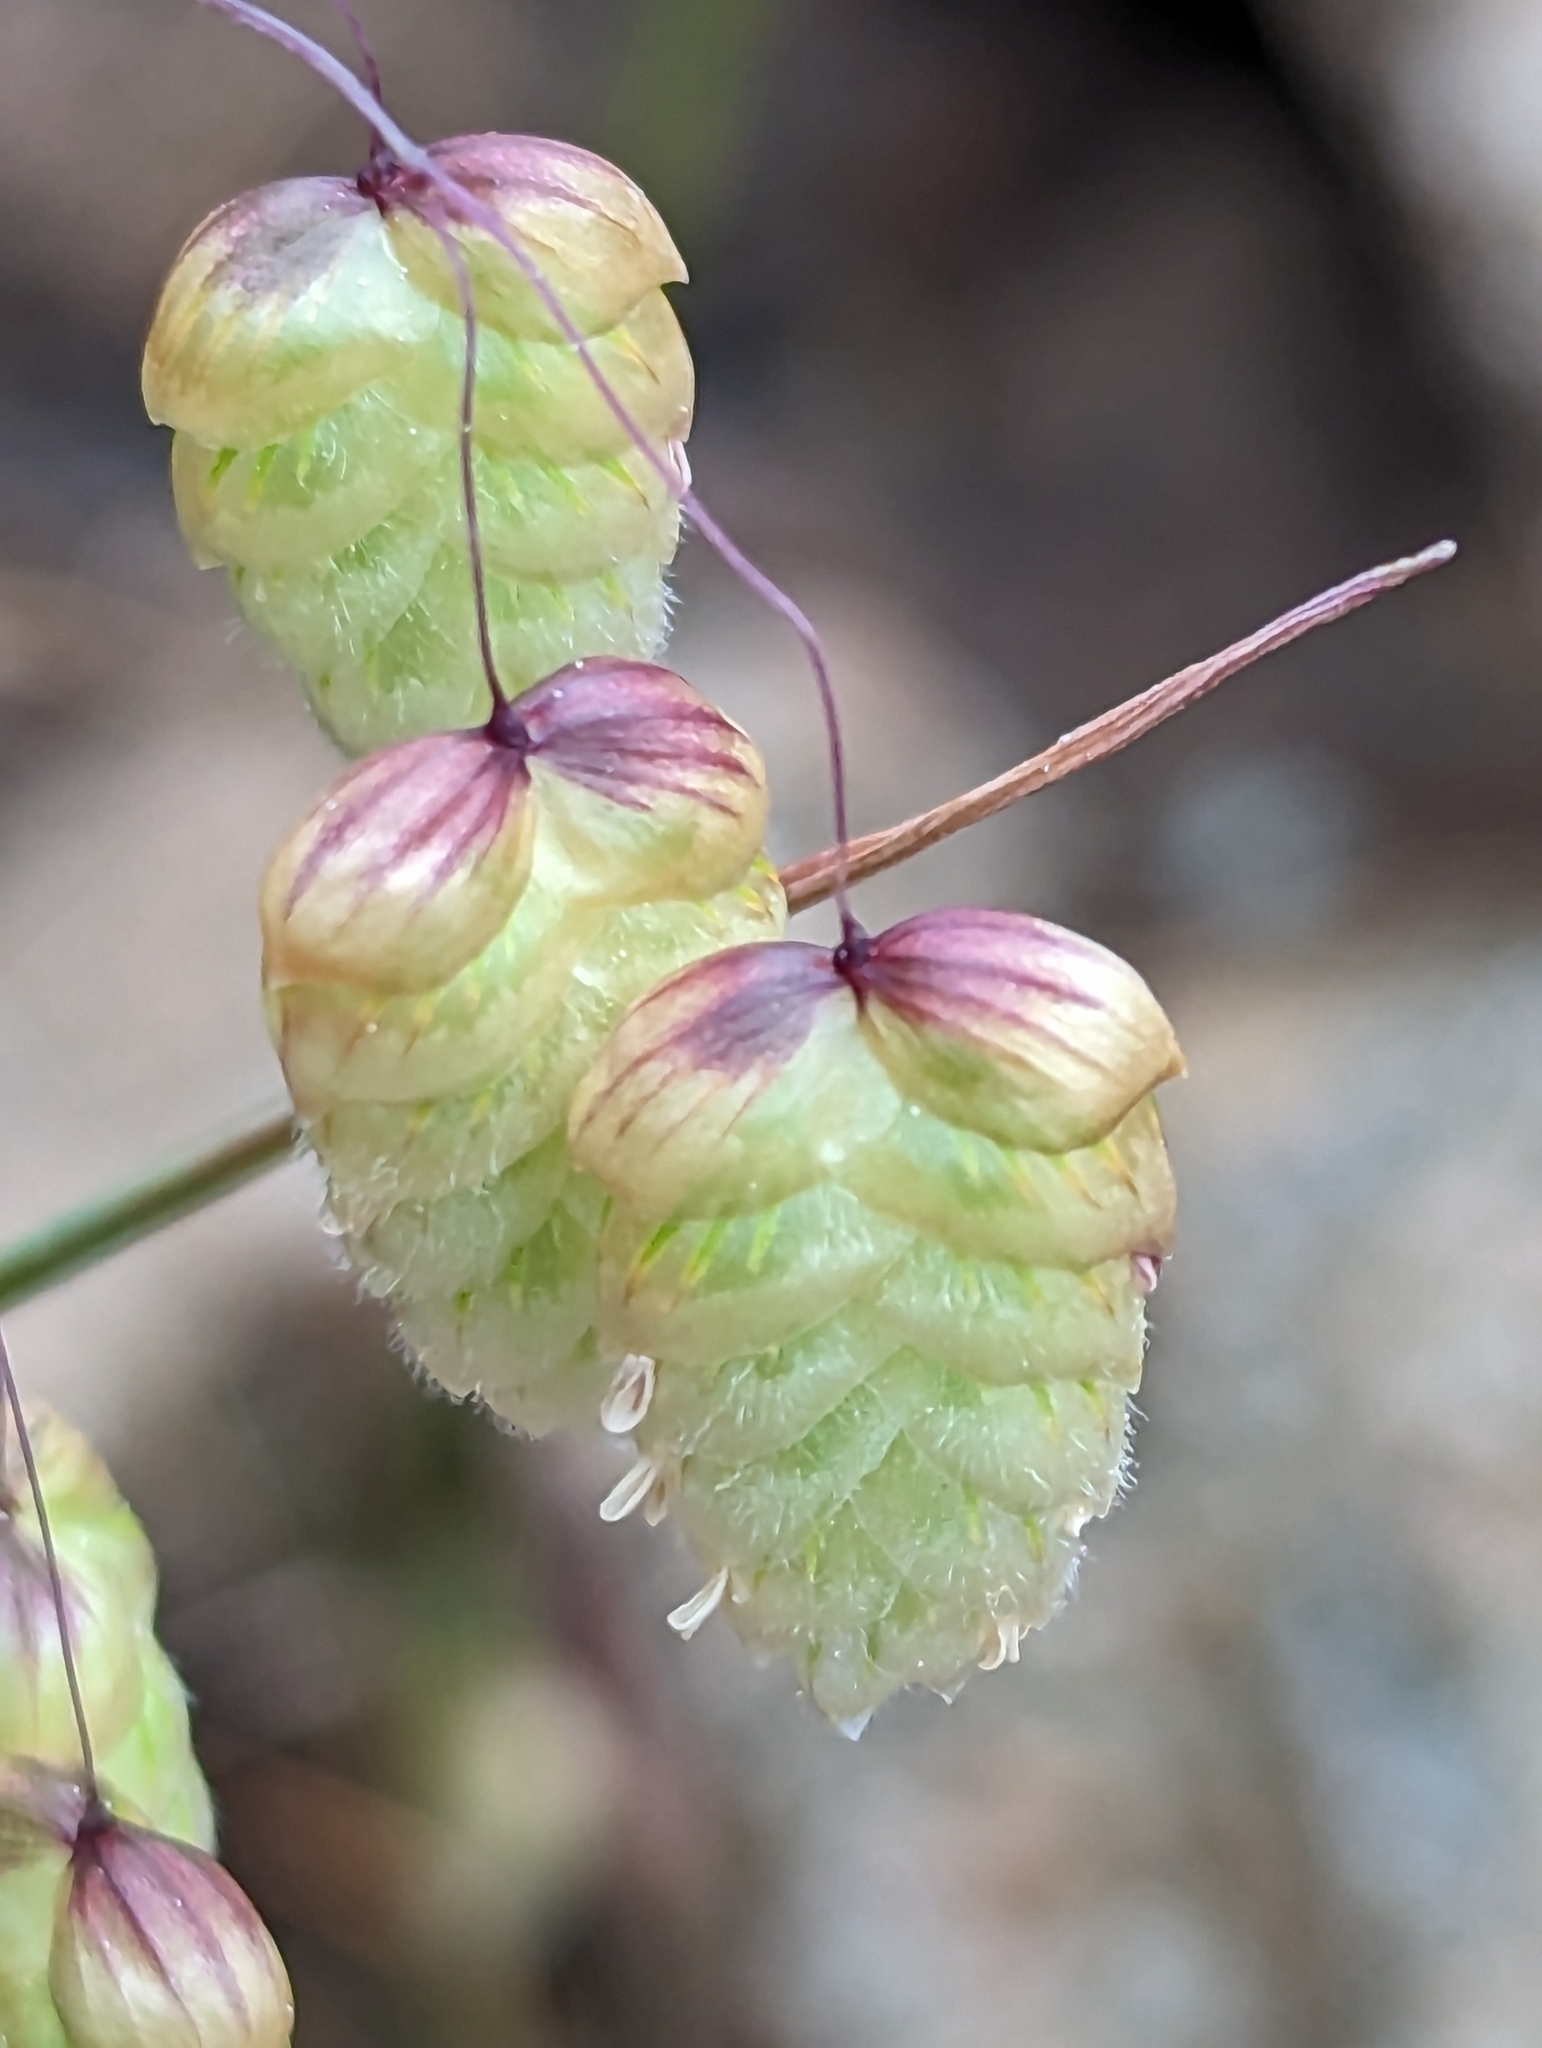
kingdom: Plantae
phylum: Tracheophyta
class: Liliopsida
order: Poales
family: Poaceae
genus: Briza
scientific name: Briza maxima
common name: Big quakinggrass
